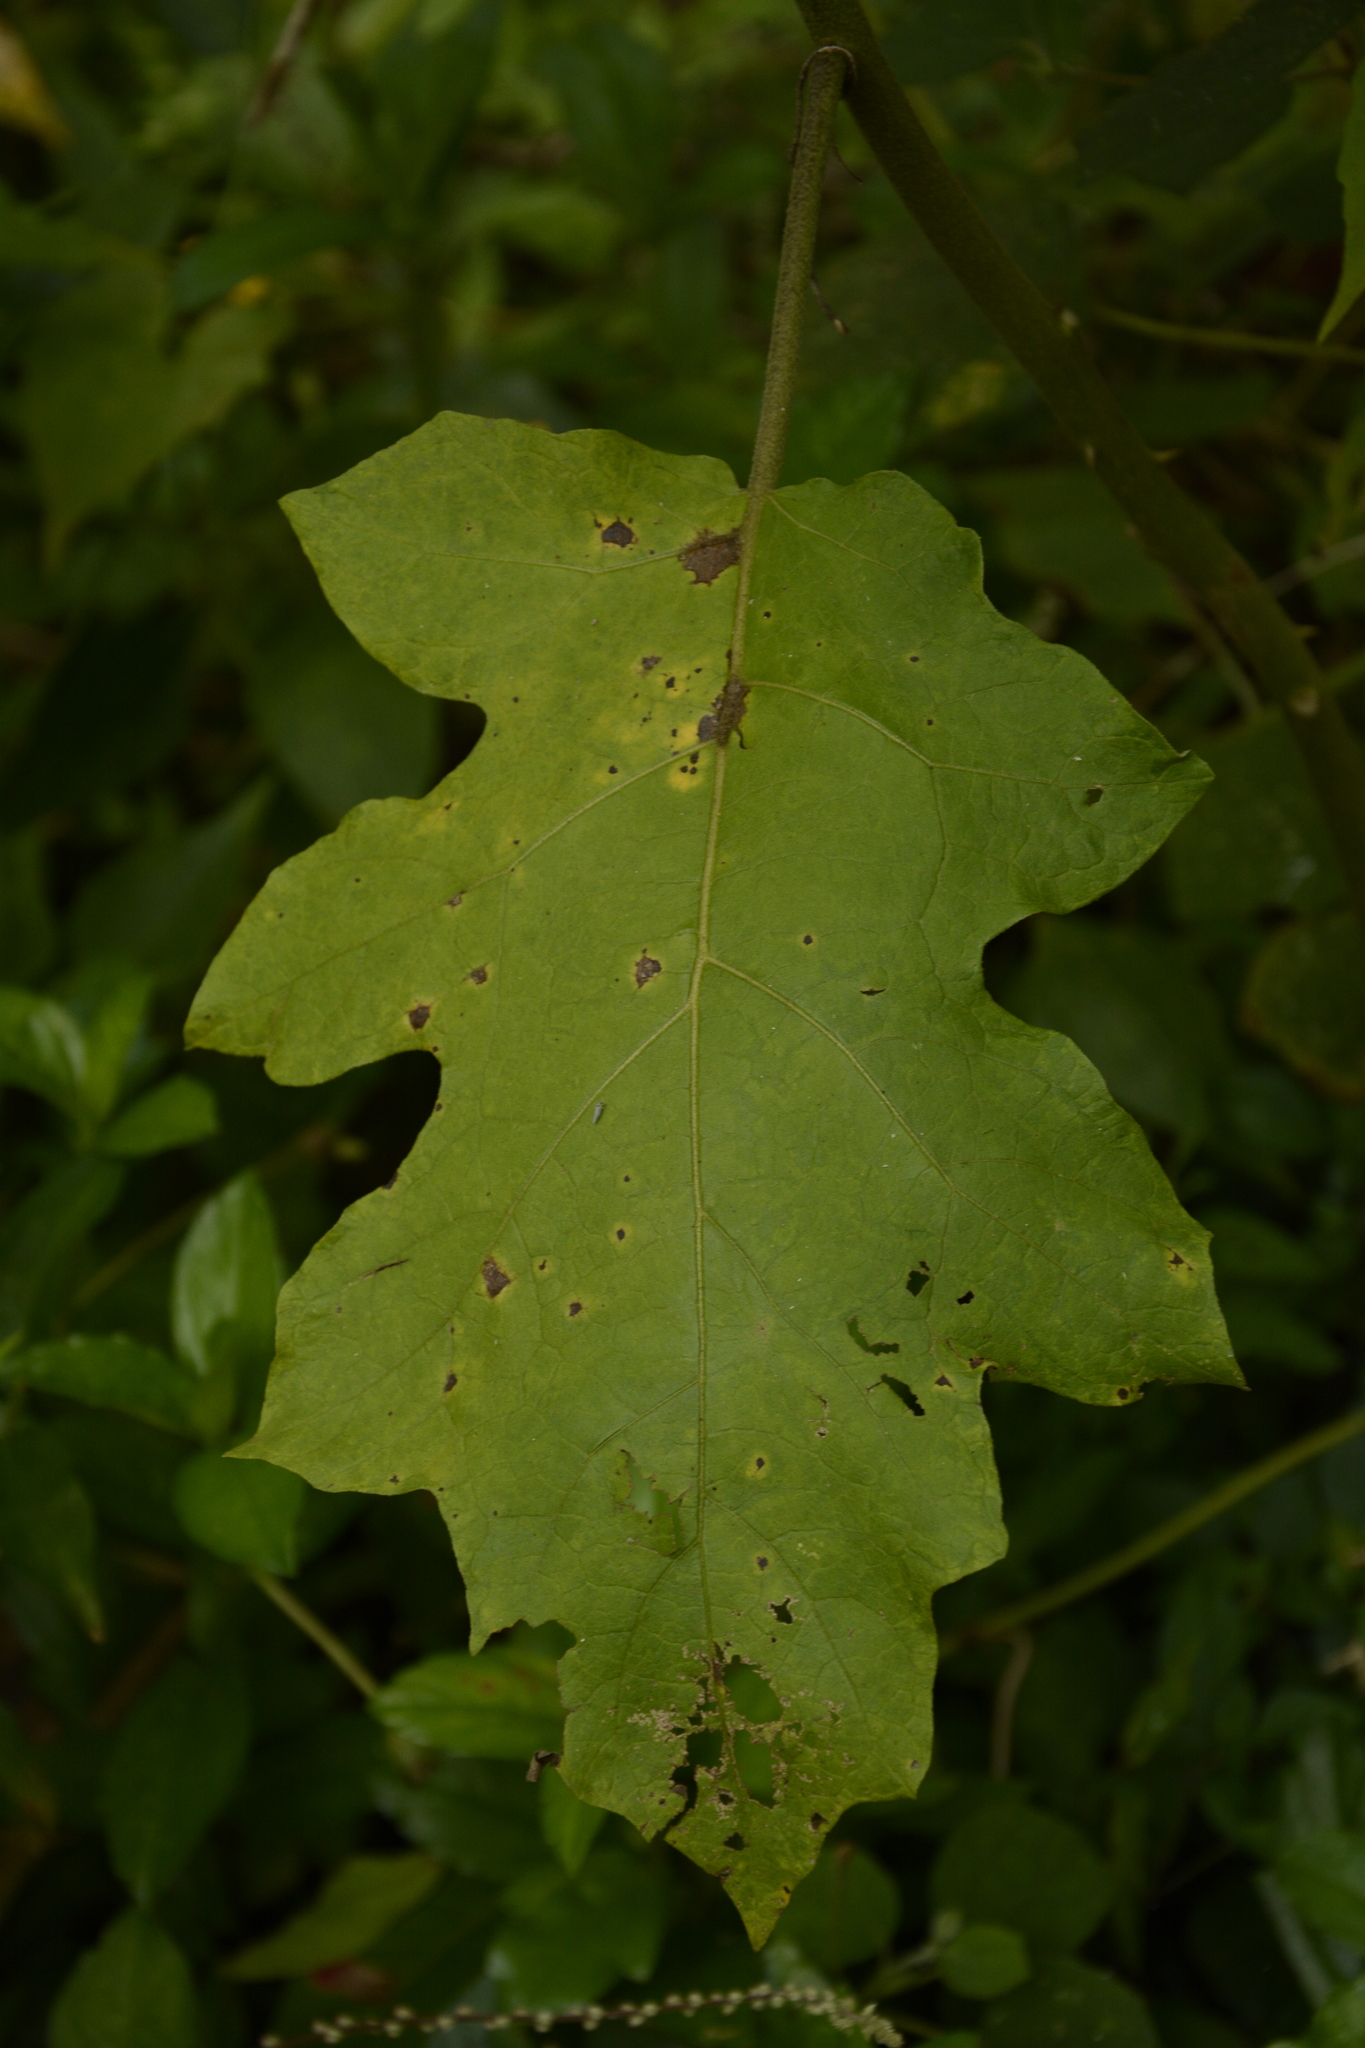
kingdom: Plantae
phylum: Tracheophyta
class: Magnoliopsida
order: Solanales
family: Solanaceae
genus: Solanum
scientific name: Solanum torvum
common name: Turkey berry
